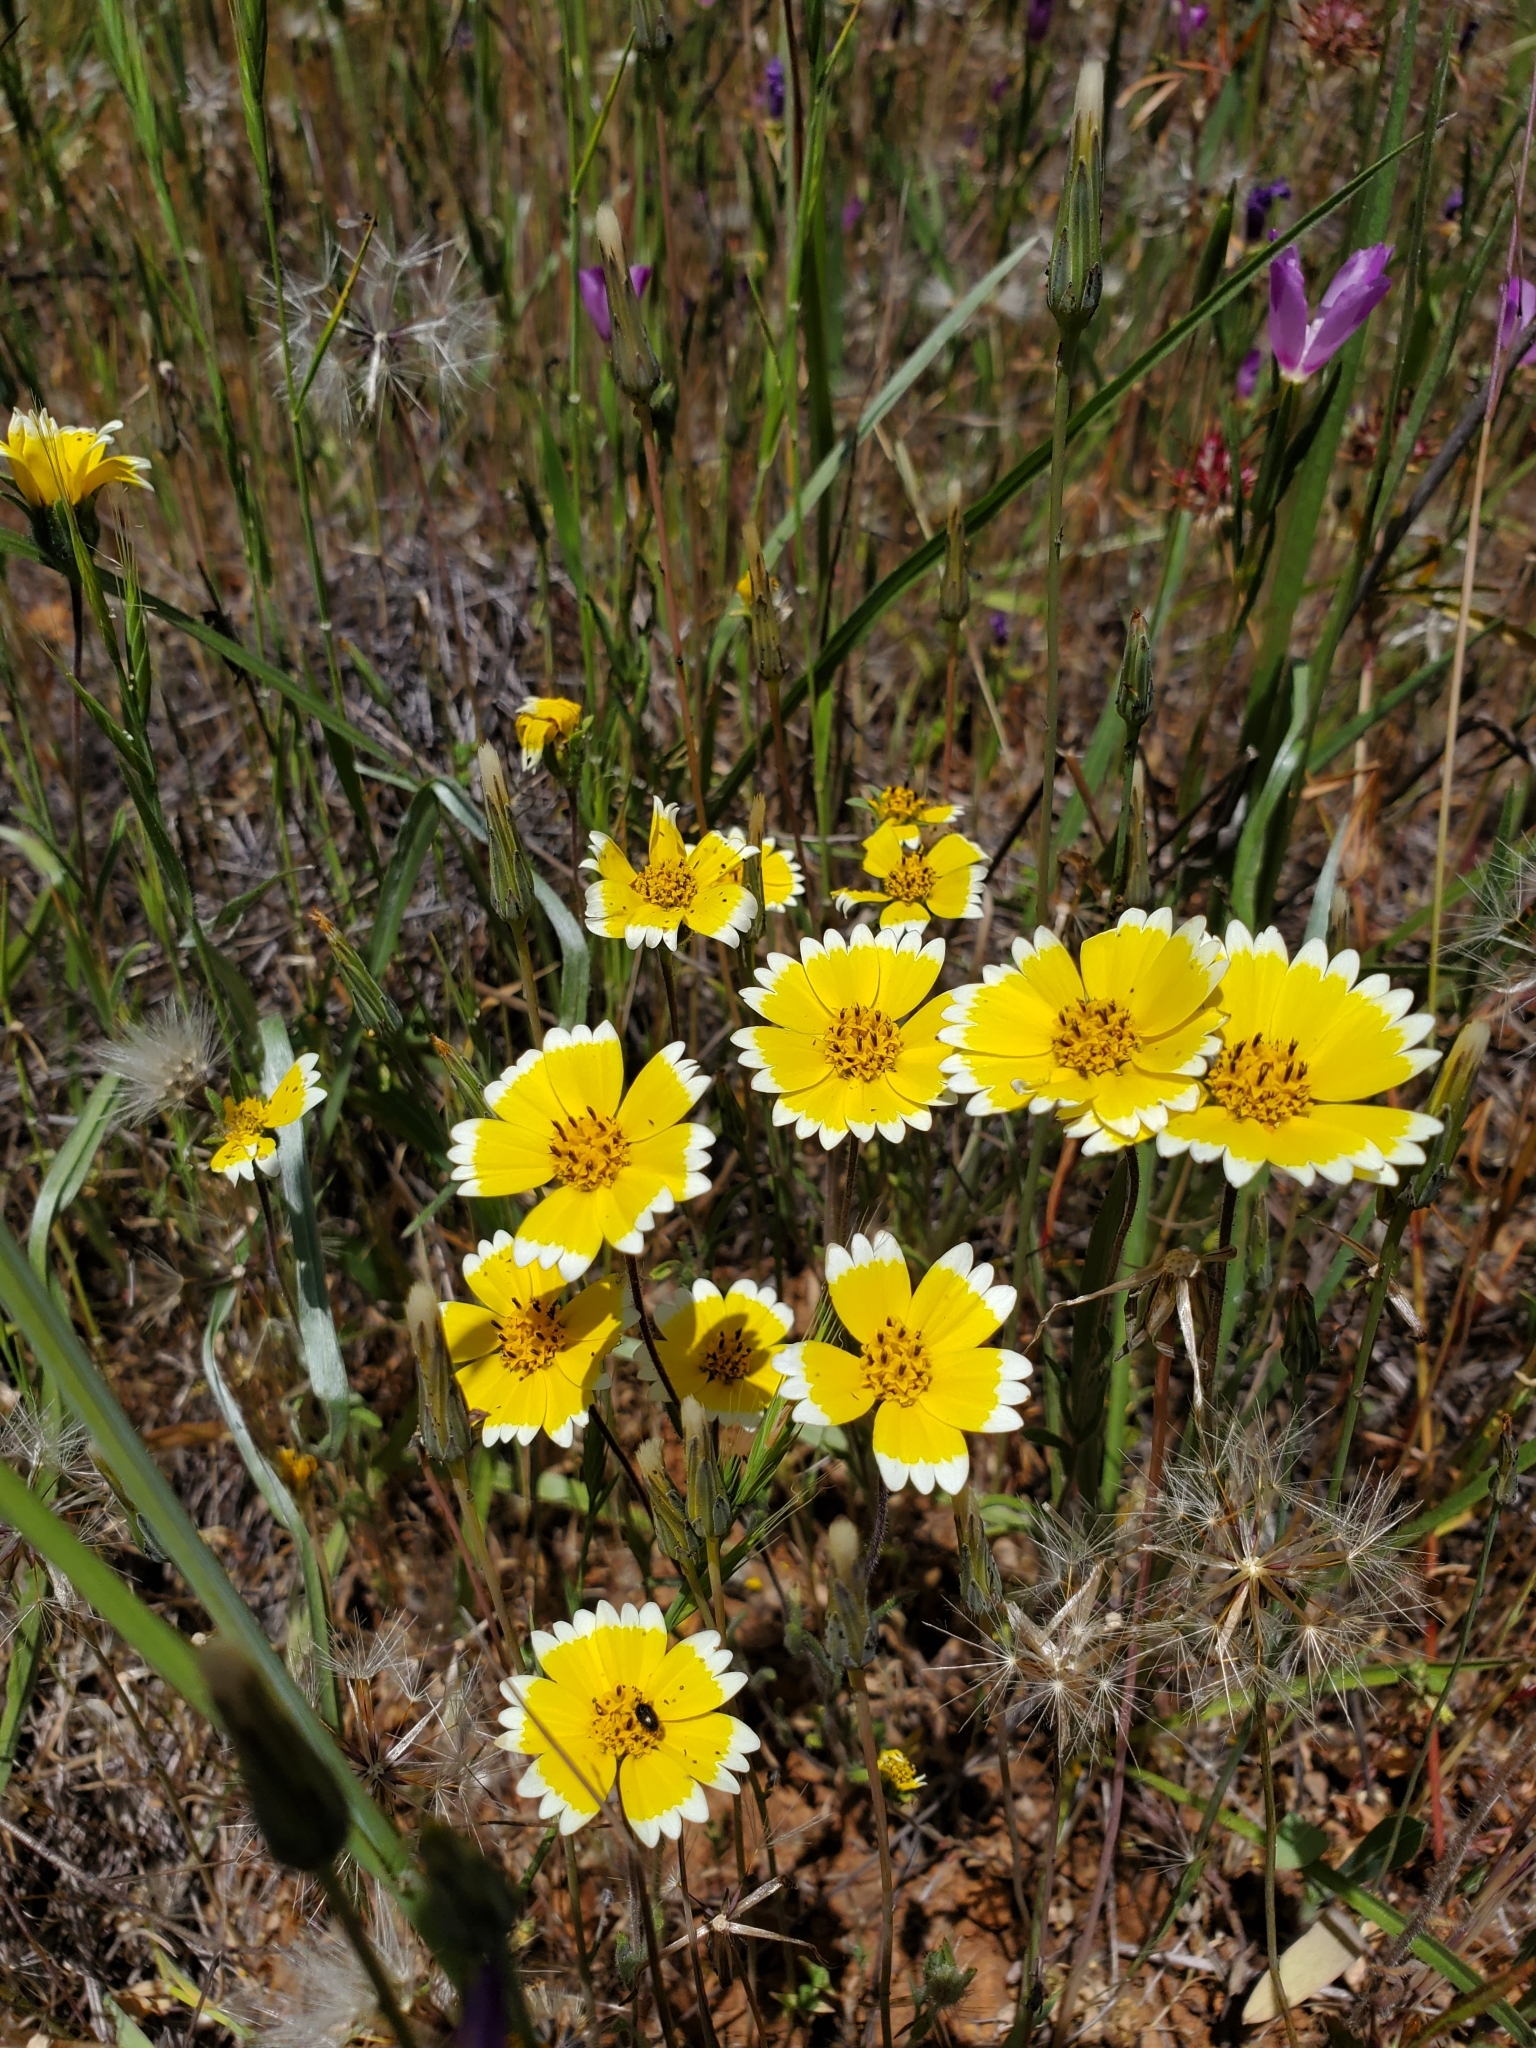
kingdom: Plantae
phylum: Tracheophyta
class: Magnoliopsida
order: Asterales
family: Asteraceae
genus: Layia
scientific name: Layia platyglossa
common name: Tidy-tips
